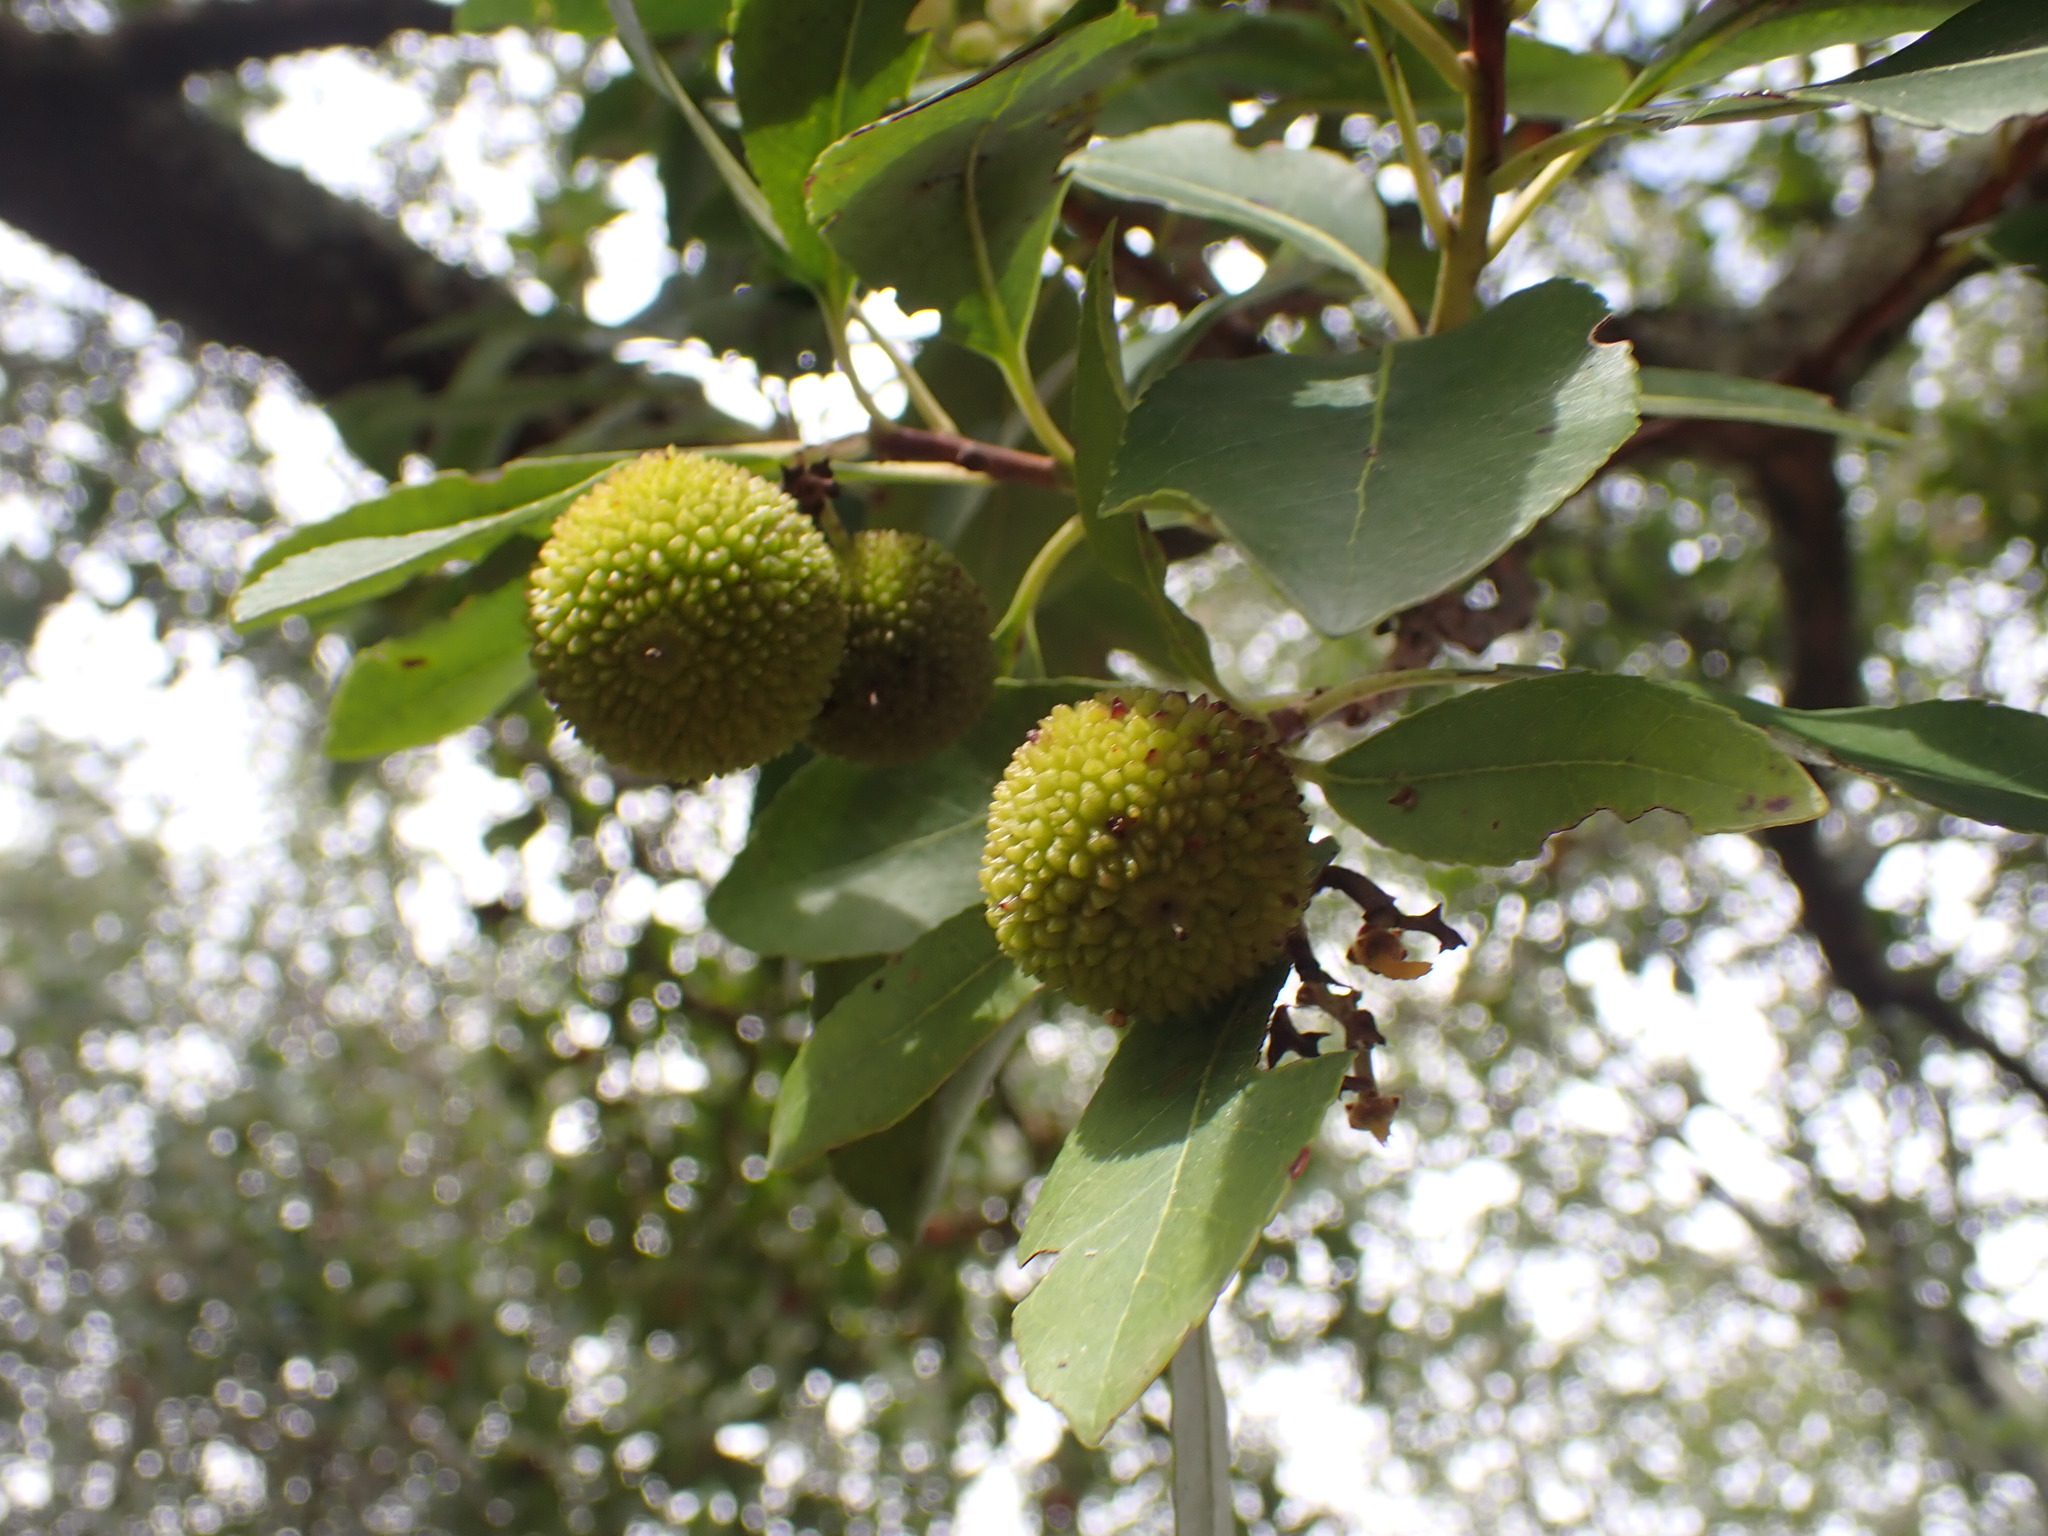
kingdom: Plantae
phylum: Tracheophyta
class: Magnoliopsida
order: Ericales
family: Ericaceae
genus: Arbutus
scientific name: Arbutus unedo
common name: Strawberry-tree
